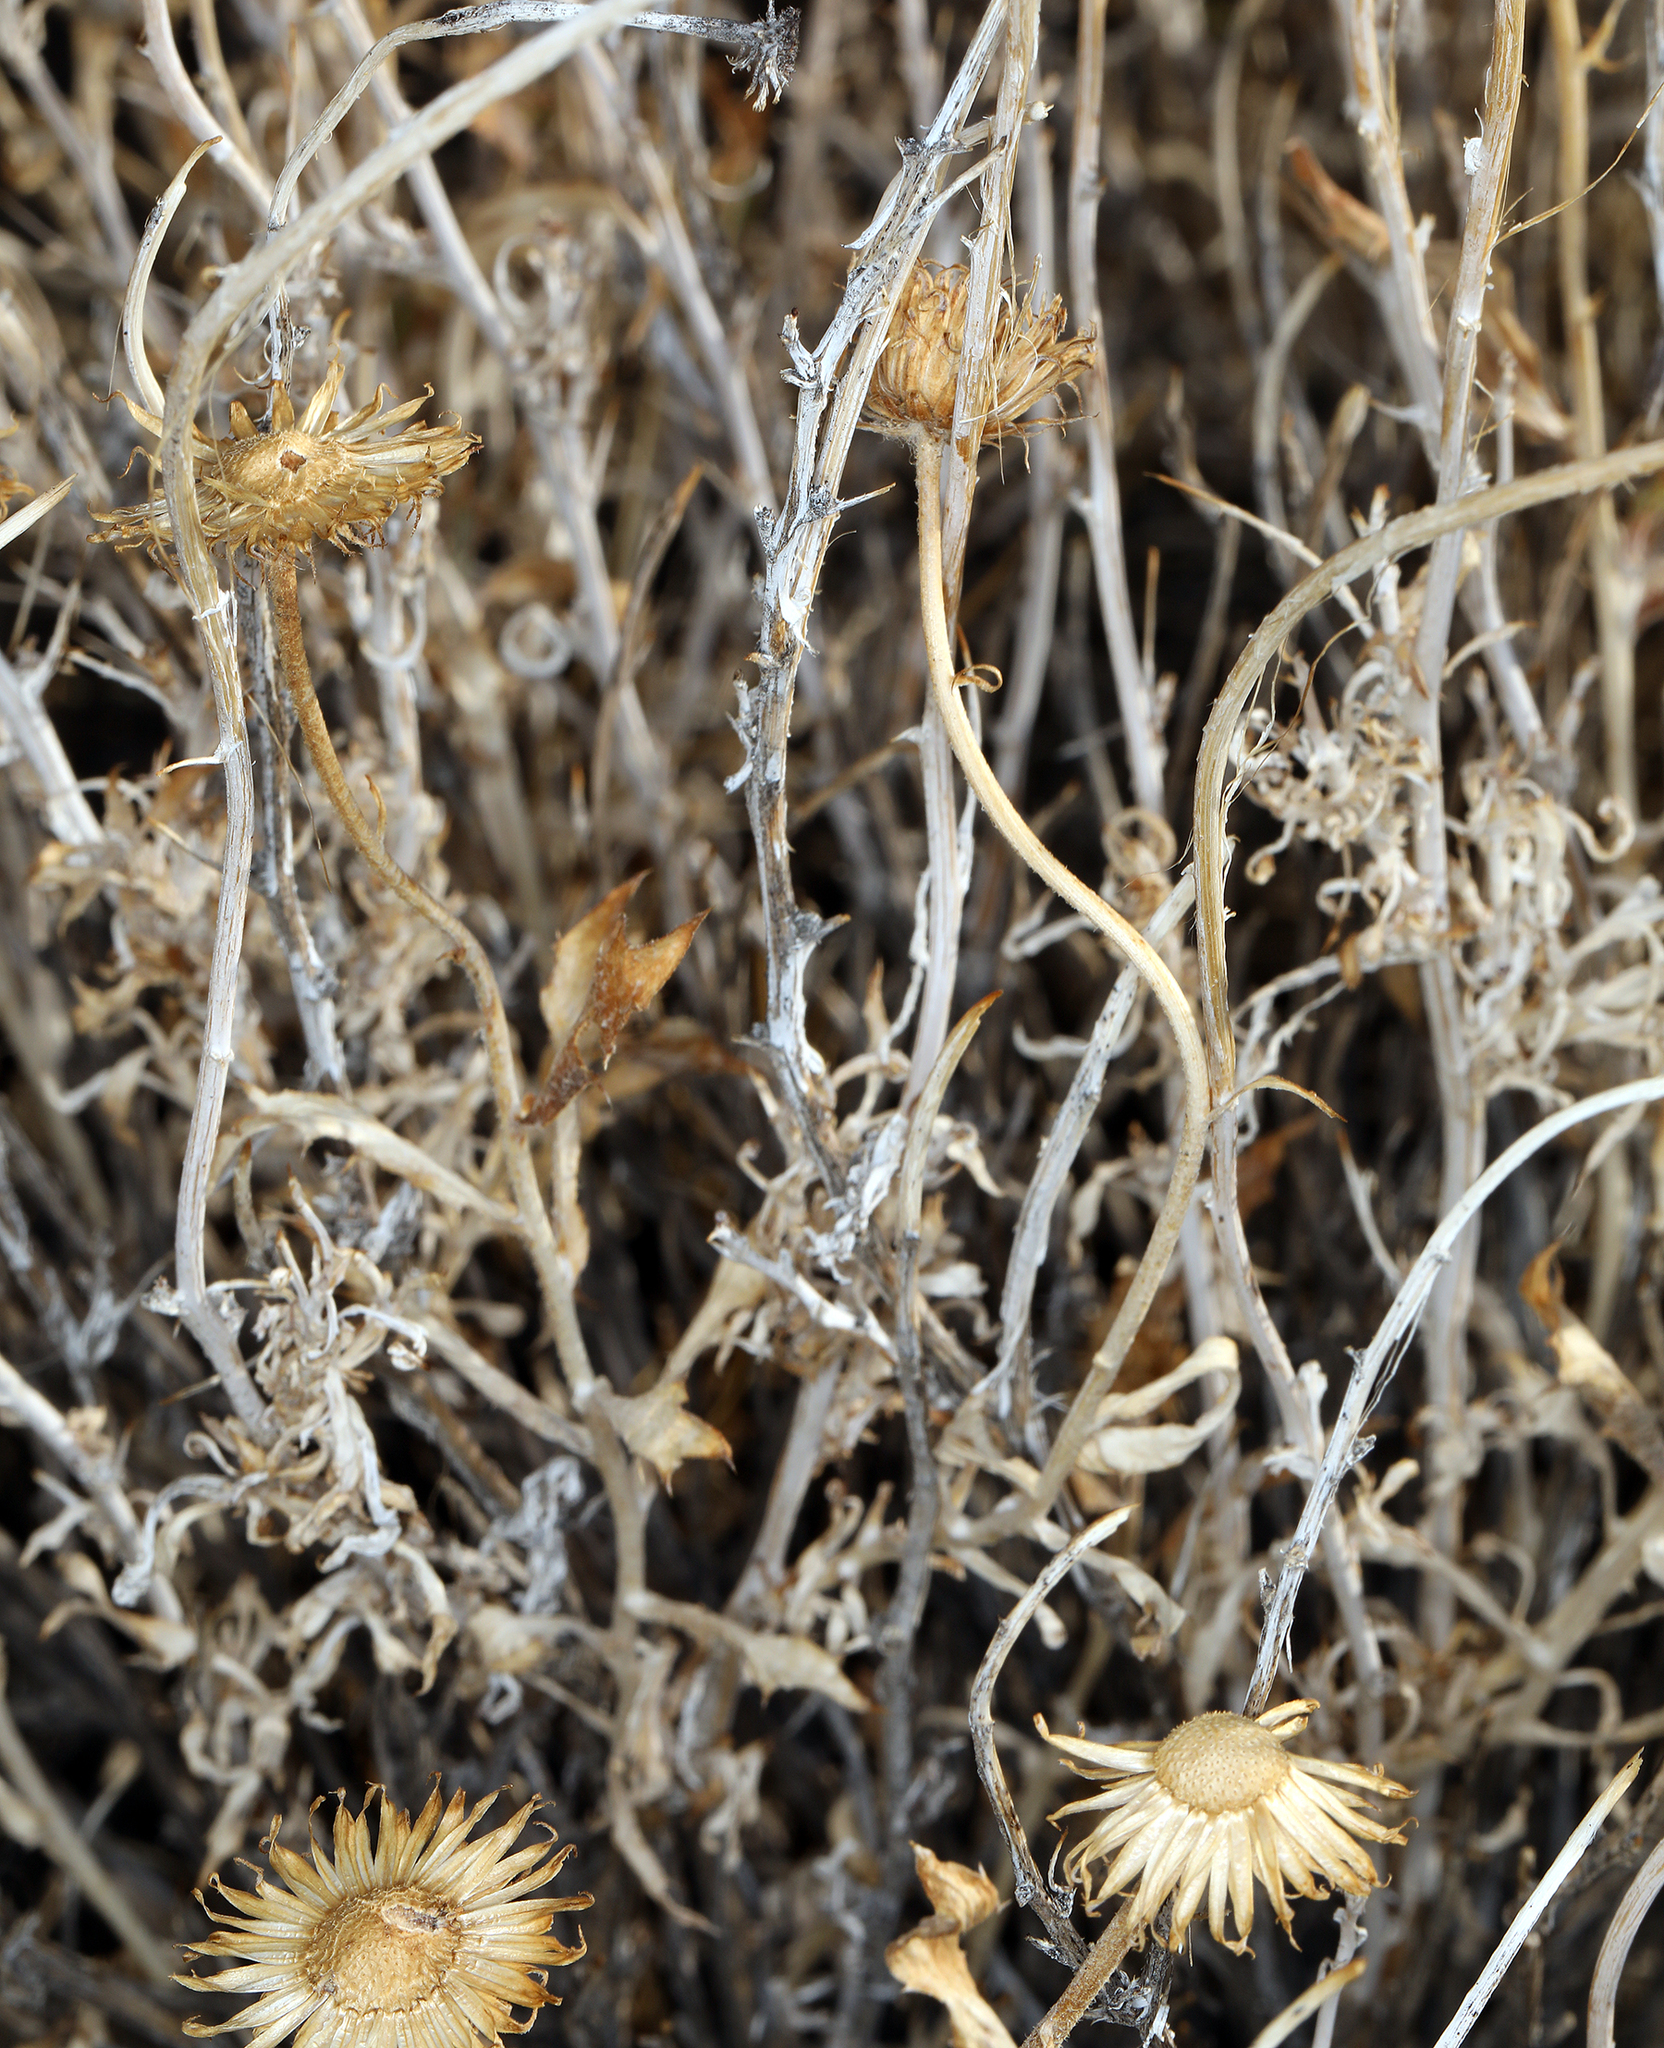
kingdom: Plantae
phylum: Tracheophyta
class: Magnoliopsida
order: Asterales
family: Asteraceae
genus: Xylorhiza
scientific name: Xylorhiza tortifolia
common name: Hurt-leaf woody-aster
